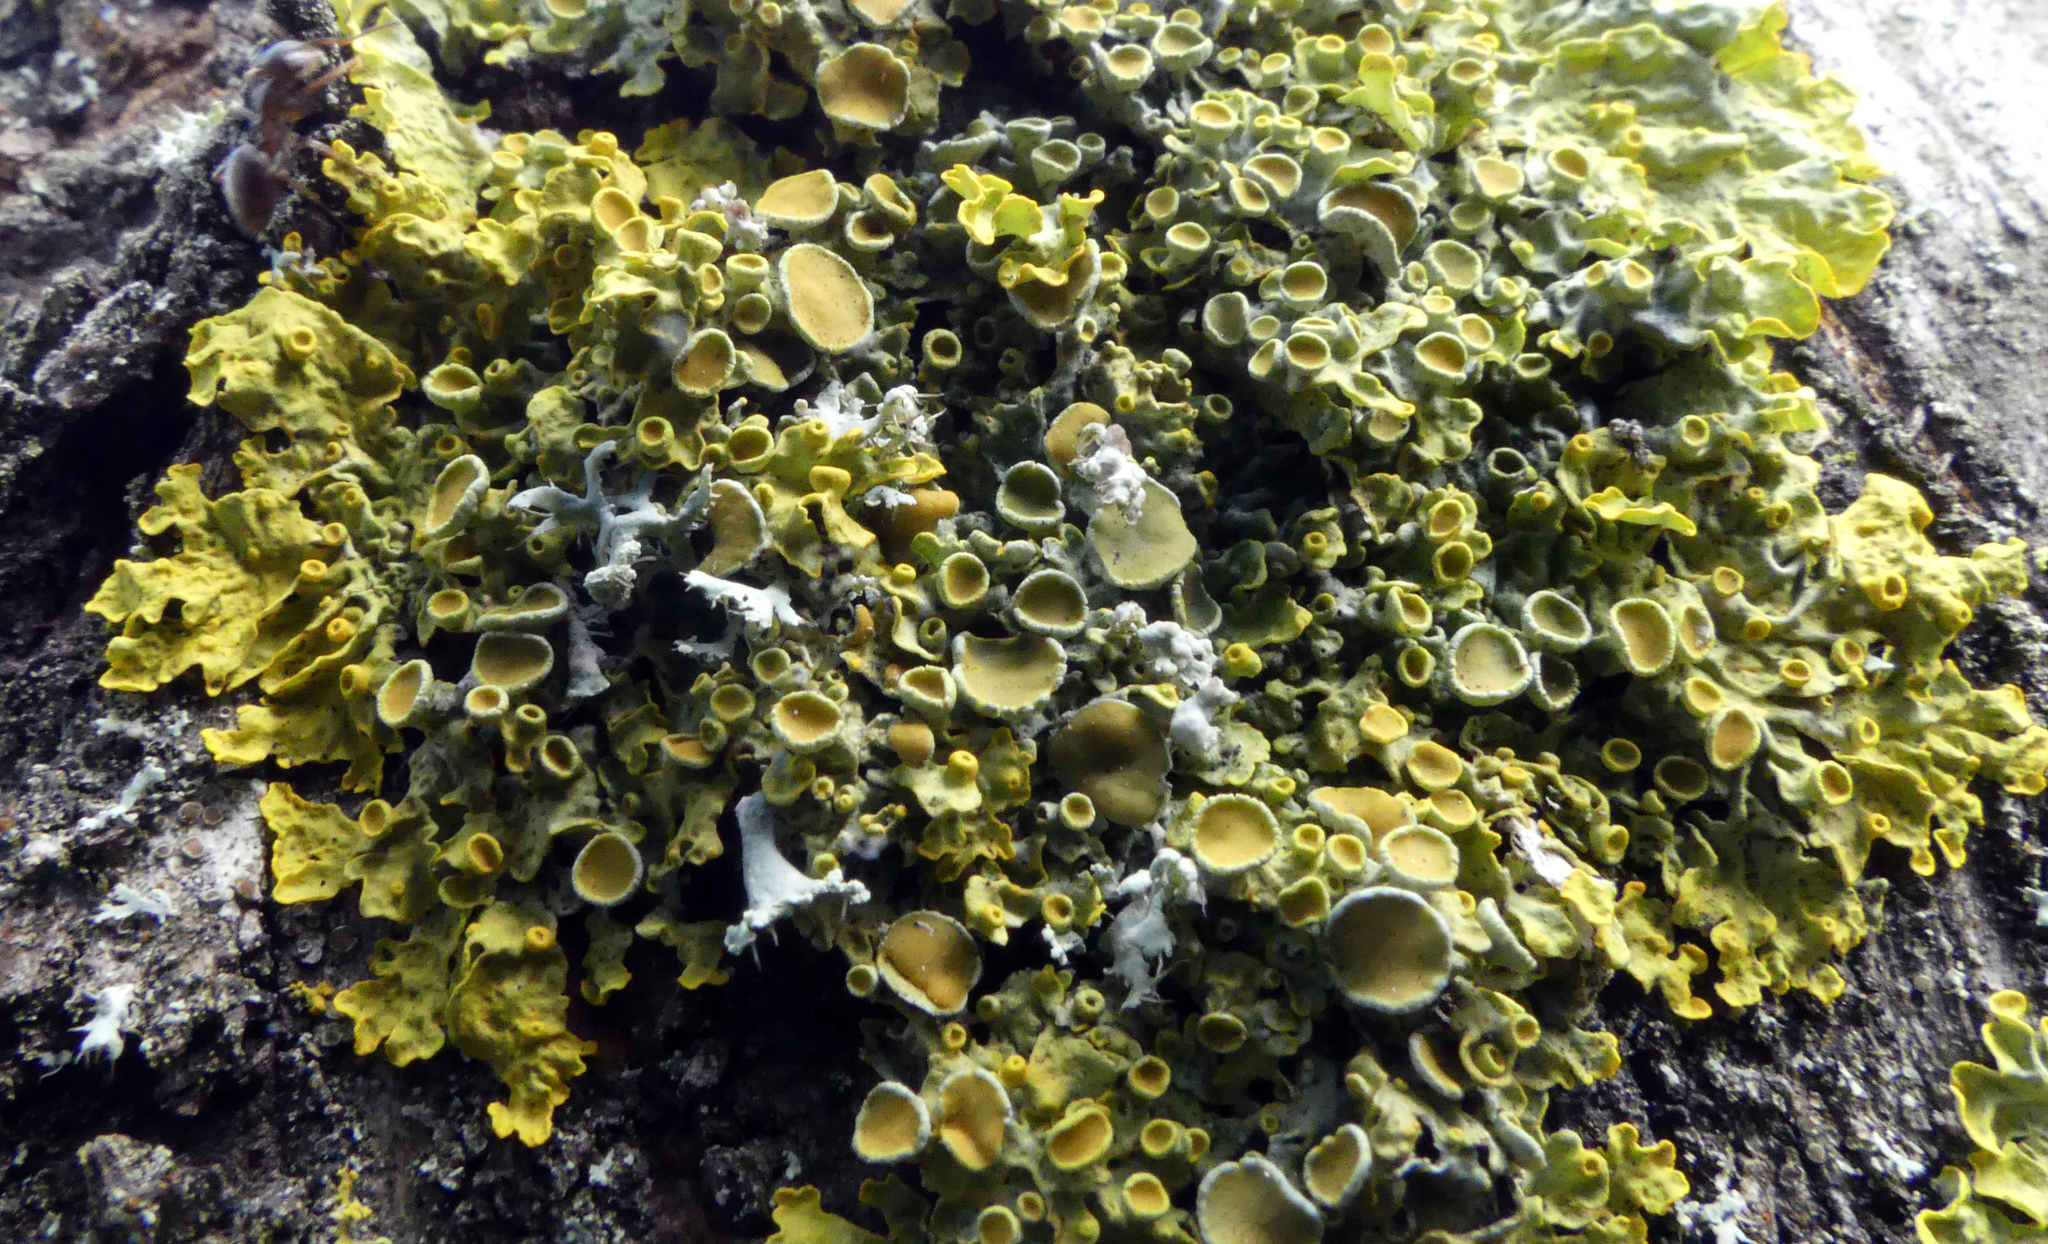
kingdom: Fungi
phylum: Ascomycota
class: Lecanoromycetes
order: Teloschistales
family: Teloschistaceae
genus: Xanthoria
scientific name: Xanthoria parietina
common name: Common orange lichen
